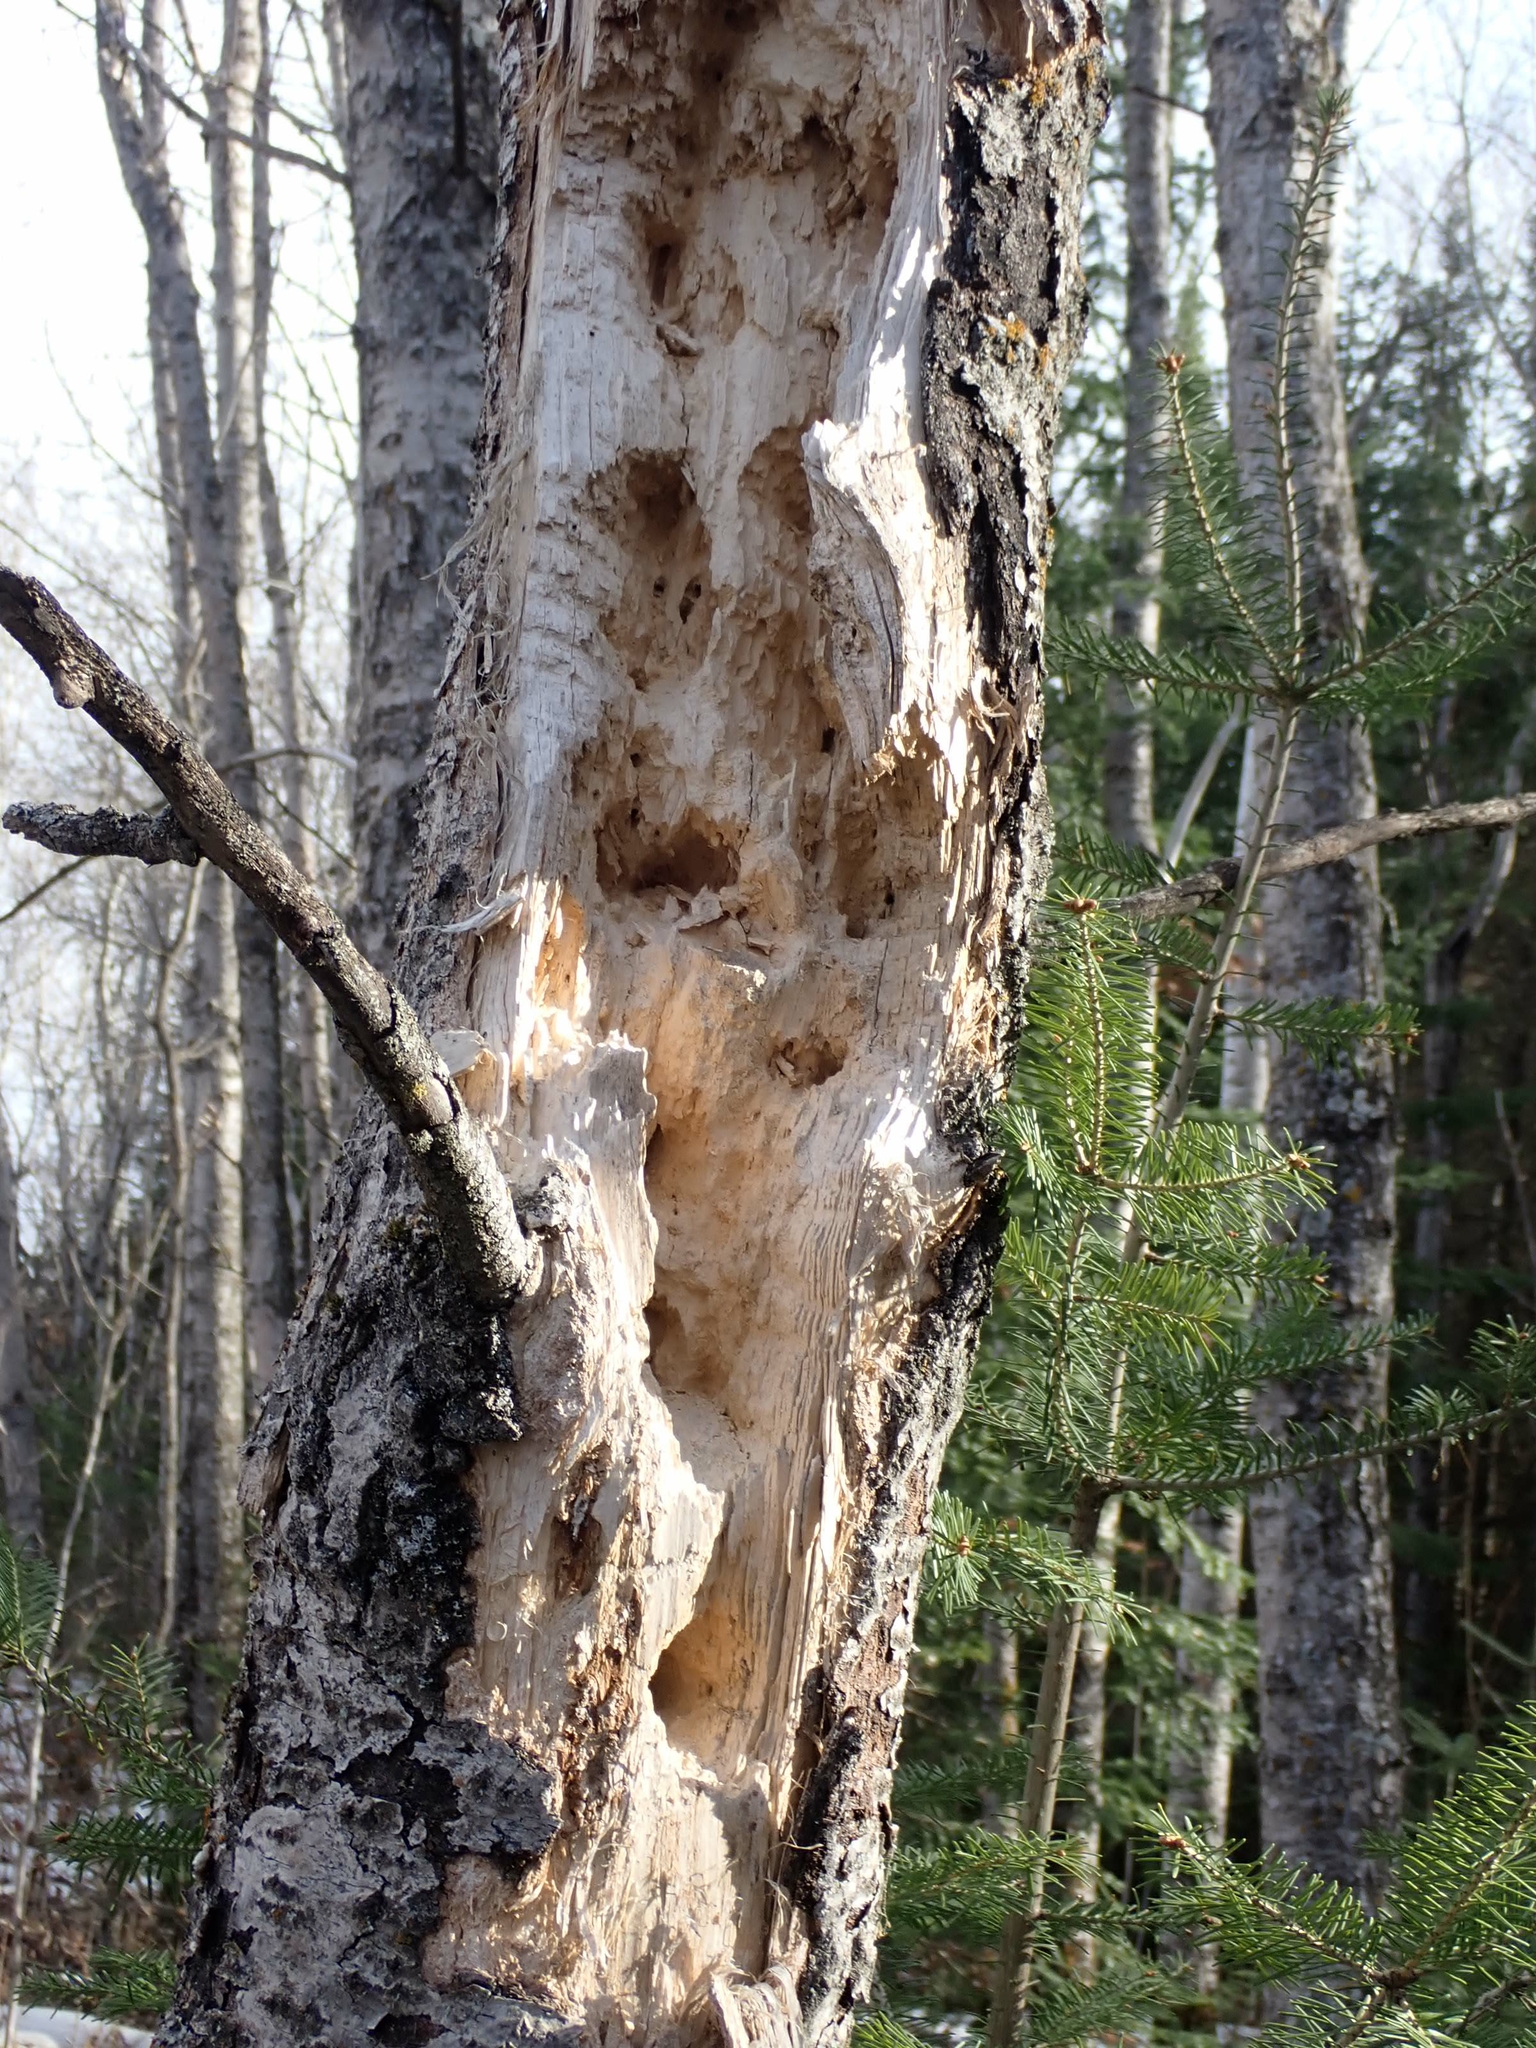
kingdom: Animalia
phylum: Chordata
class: Aves
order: Piciformes
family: Picidae
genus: Dryocopus
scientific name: Dryocopus pileatus
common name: Pileated woodpecker
